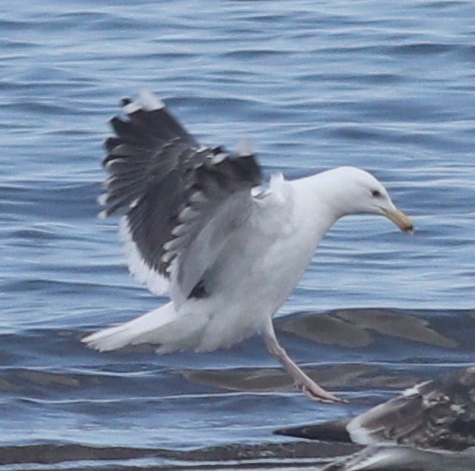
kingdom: Animalia
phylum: Chordata
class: Aves
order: Charadriiformes
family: Laridae
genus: Larus
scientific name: Larus marinus
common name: Great black-backed gull
